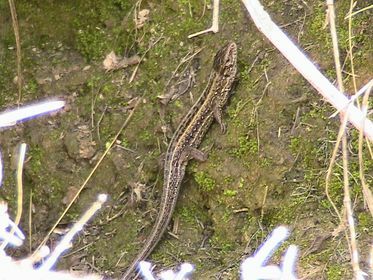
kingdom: Animalia
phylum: Chordata
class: Squamata
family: Lacertidae
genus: Lacerta
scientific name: Lacerta agilis
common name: Sand lizard
